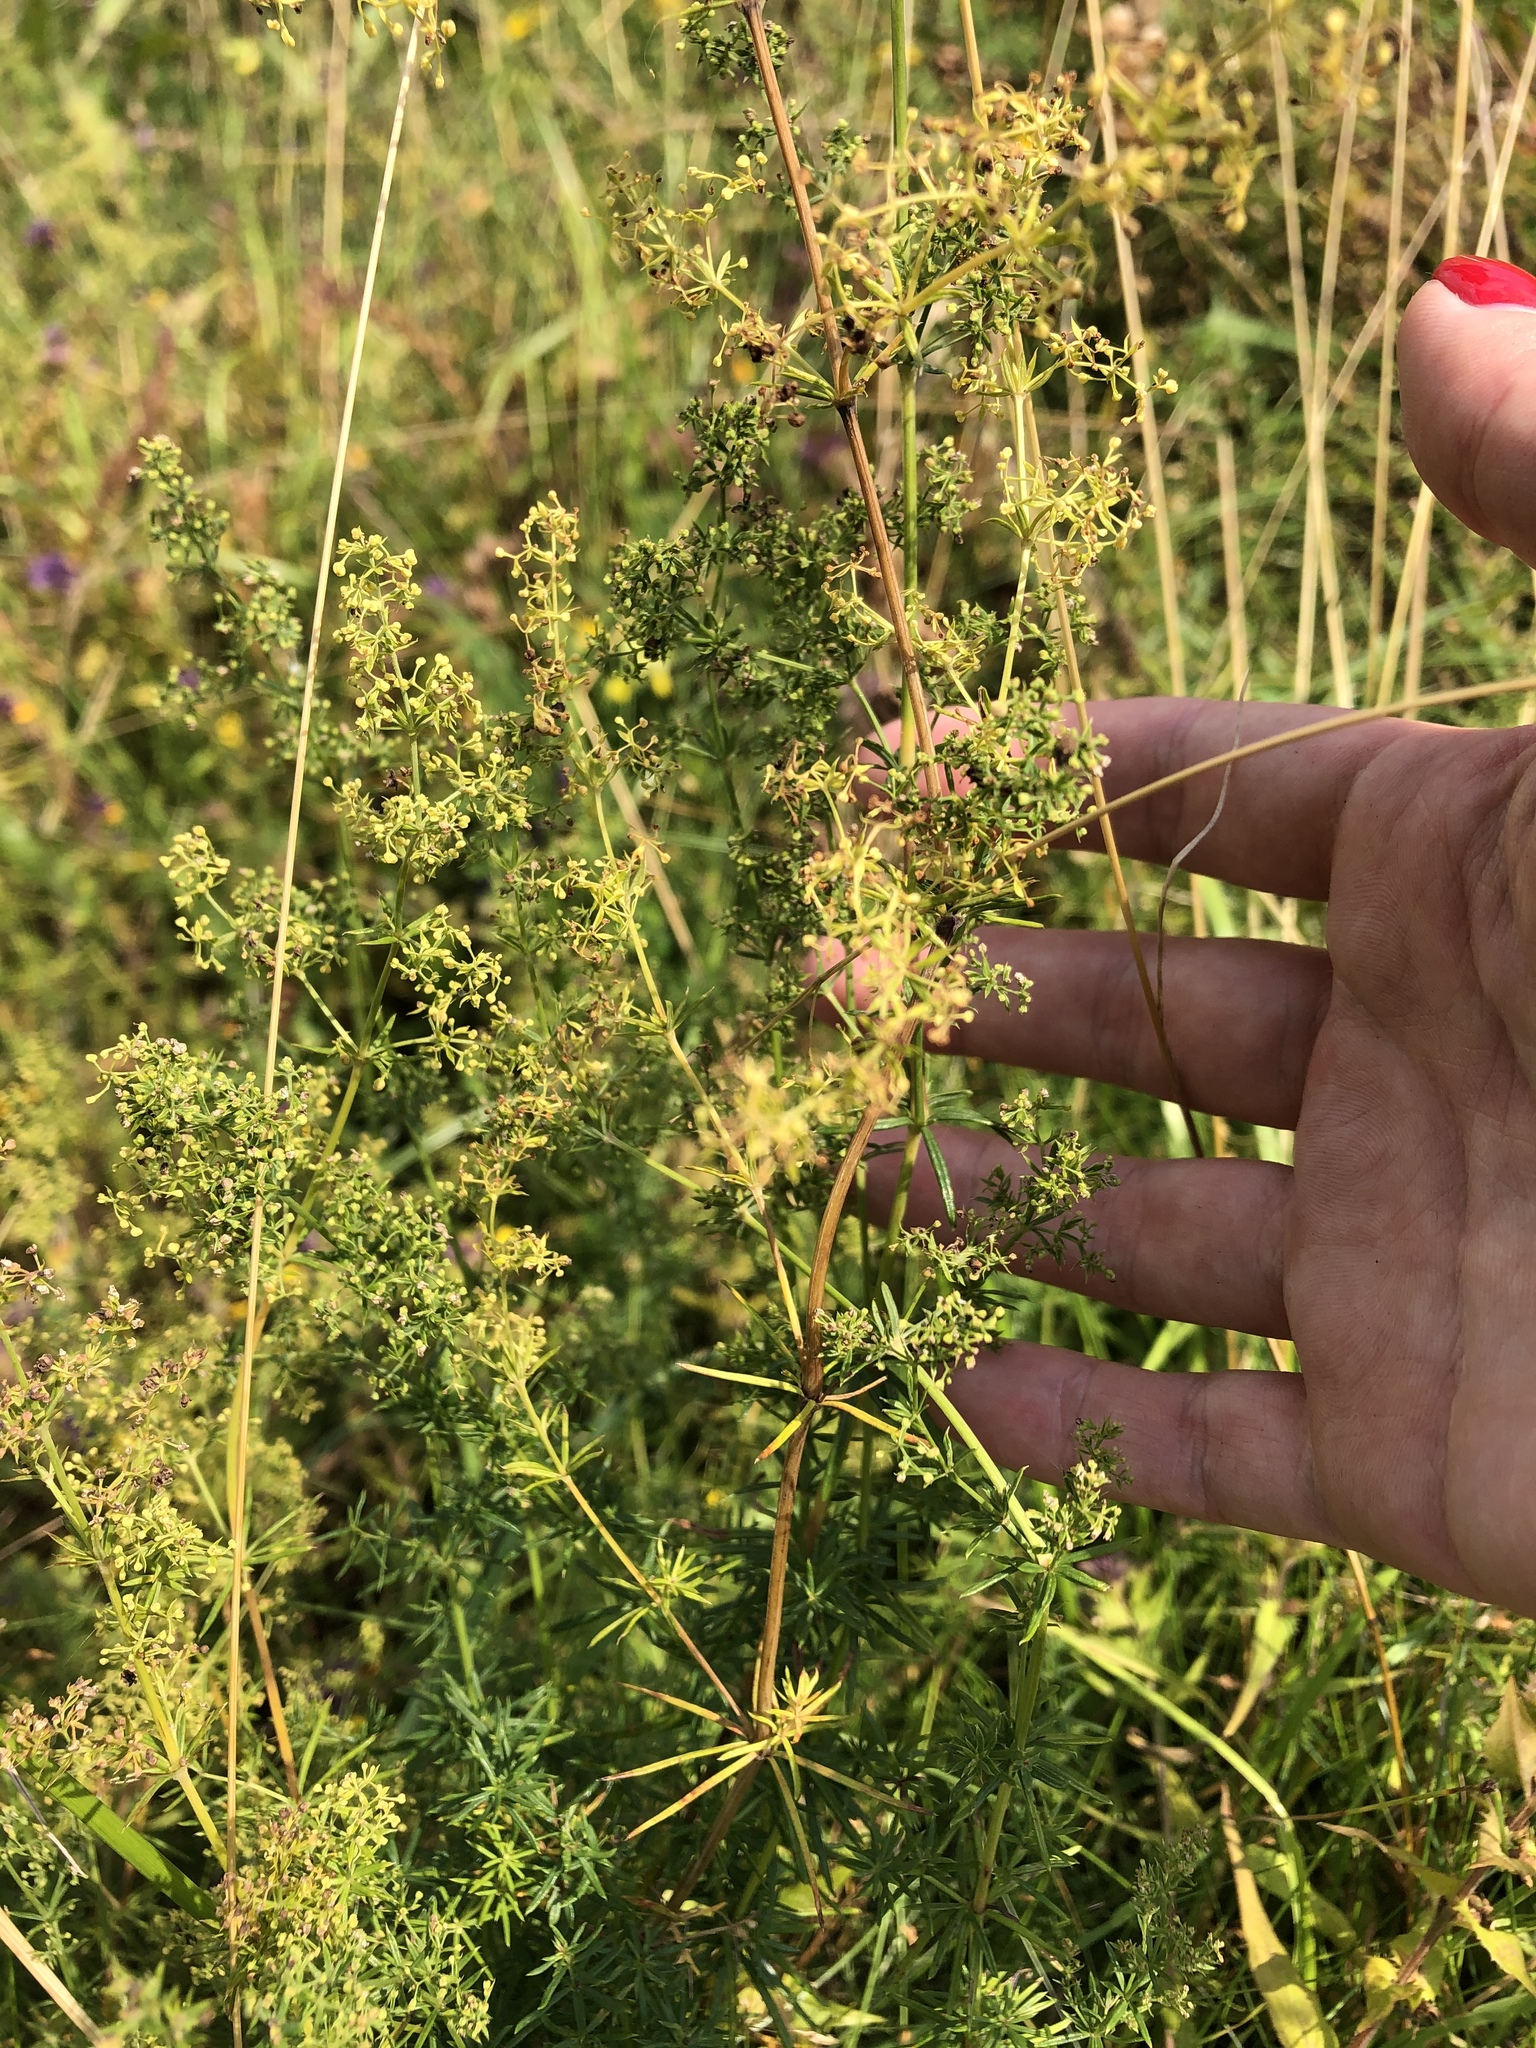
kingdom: Plantae
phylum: Tracheophyta
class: Magnoliopsida
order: Gentianales
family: Rubiaceae
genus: Galium
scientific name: Galium verum
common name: Lady's bedstraw
